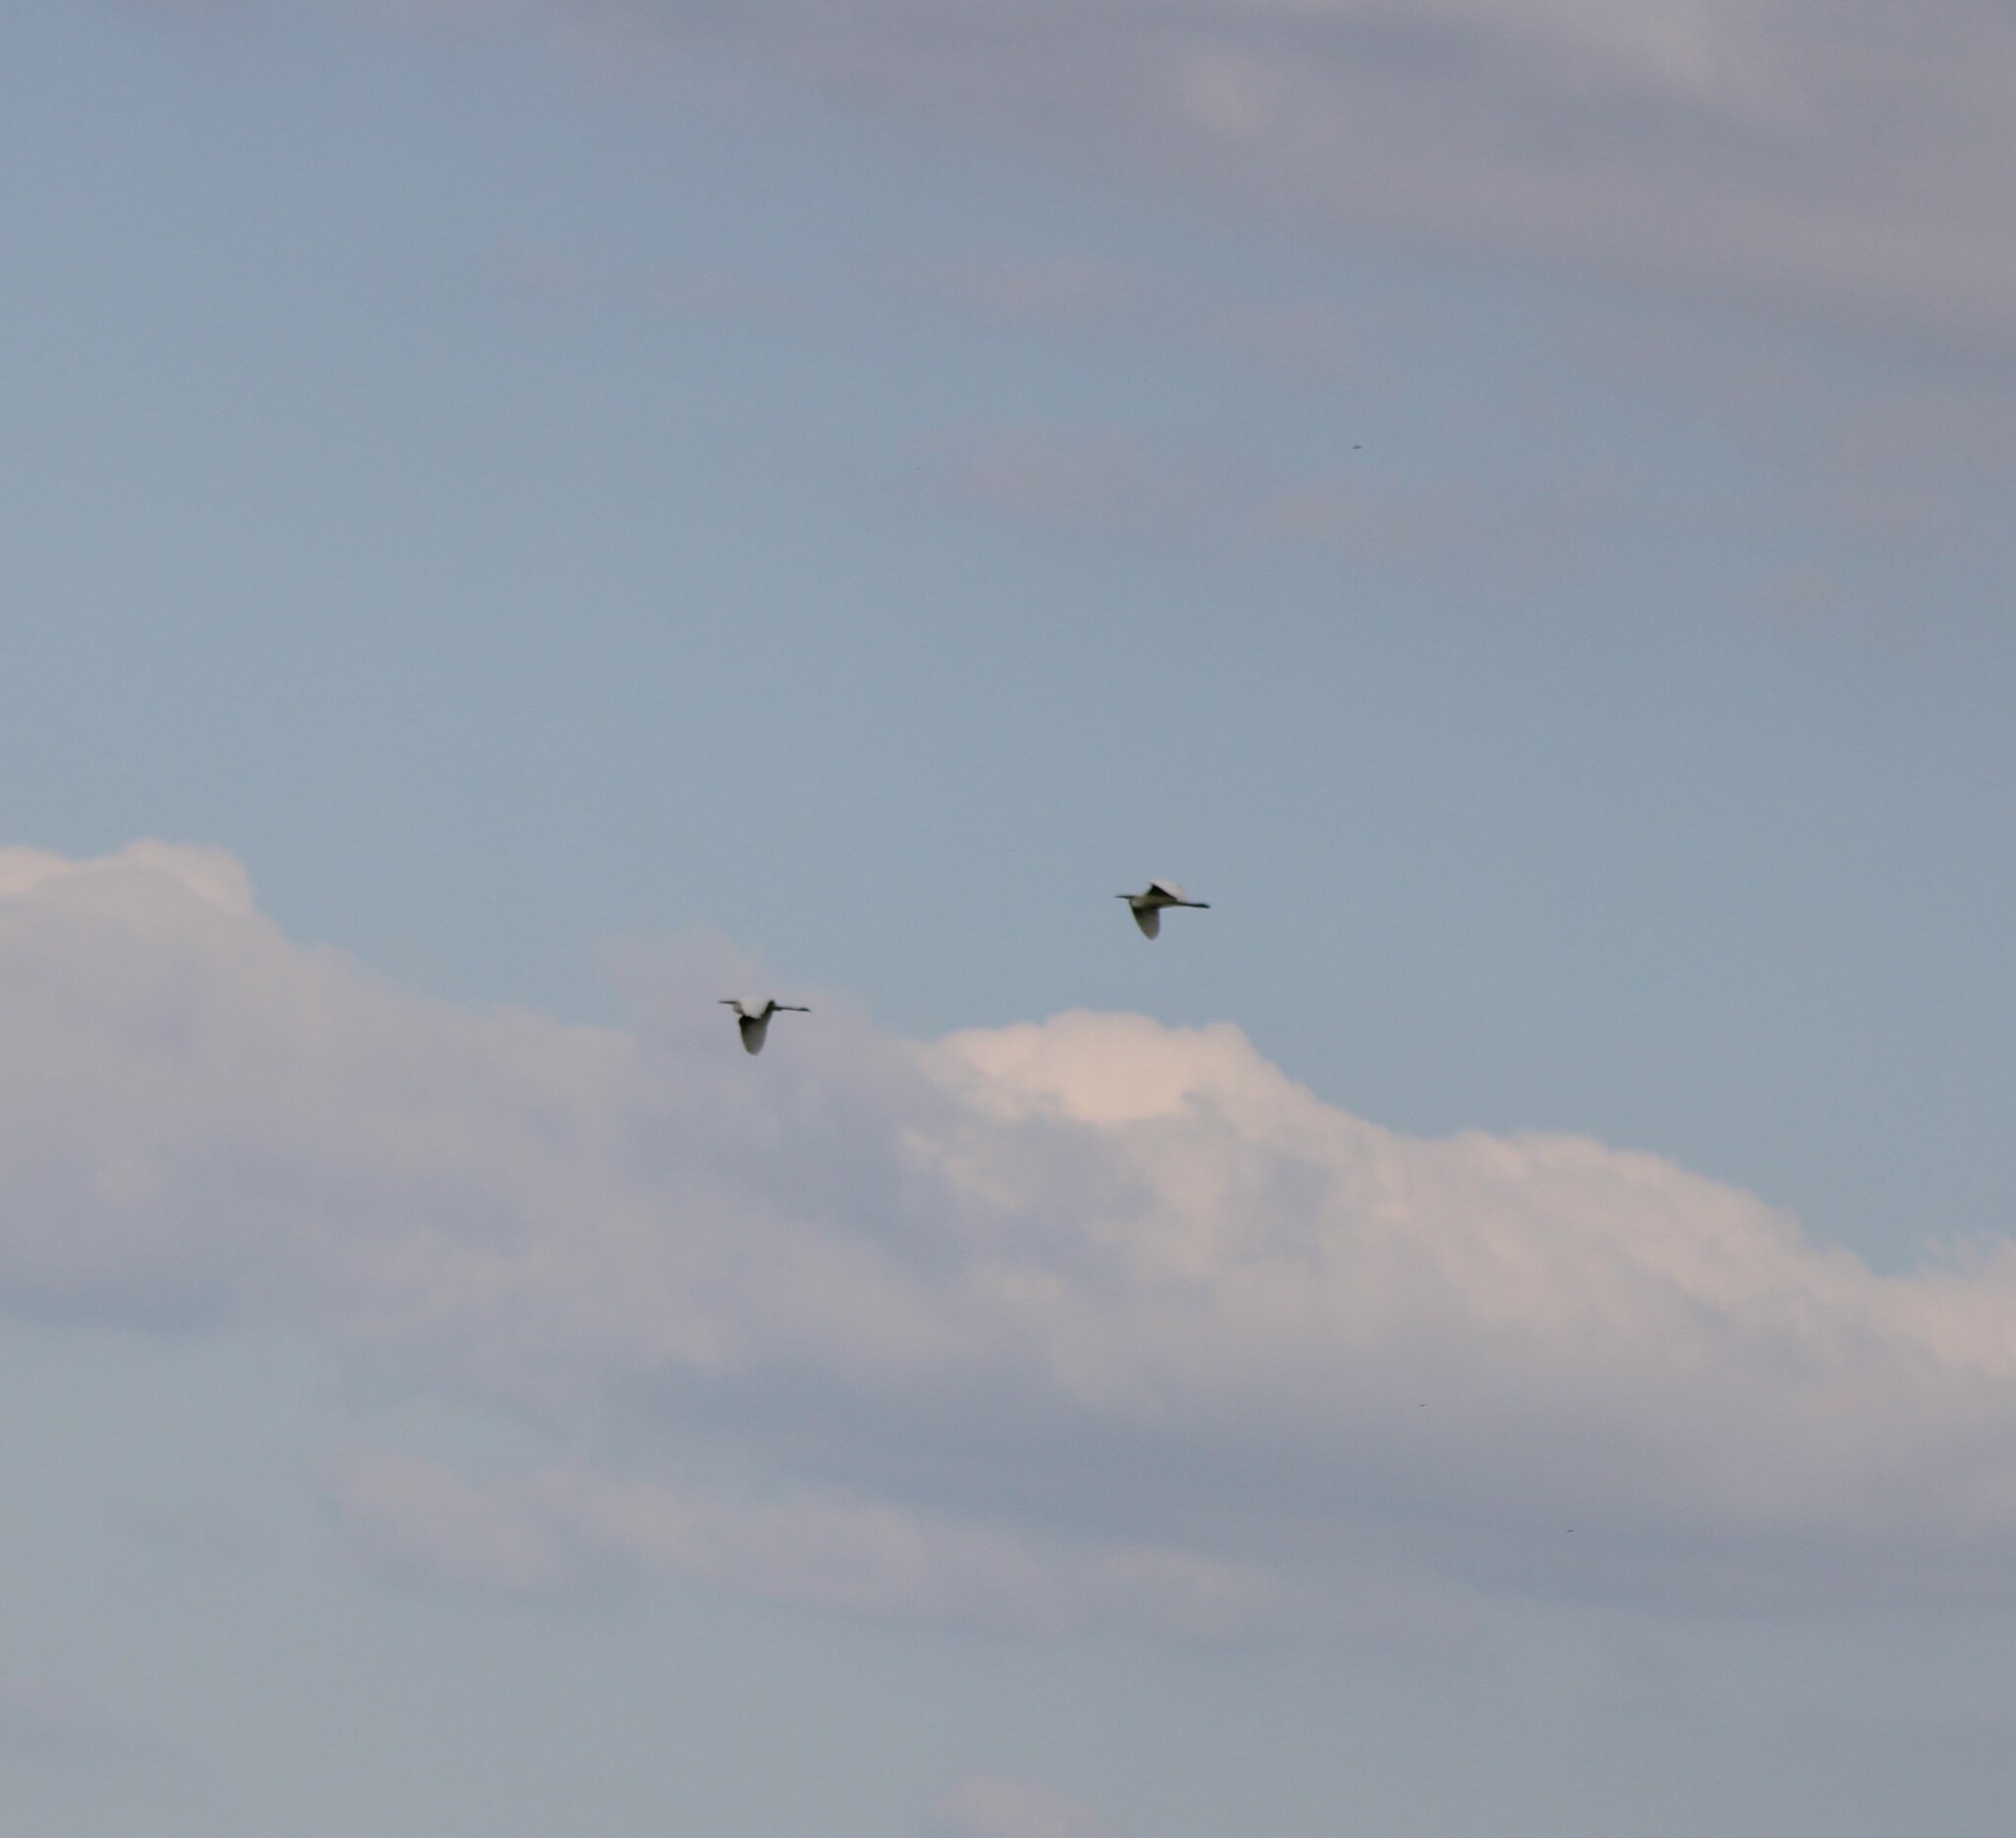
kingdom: Animalia
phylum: Chordata
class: Aves
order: Pelecaniformes
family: Ardeidae
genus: Ardea
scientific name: Ardea alba
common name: Great egret
